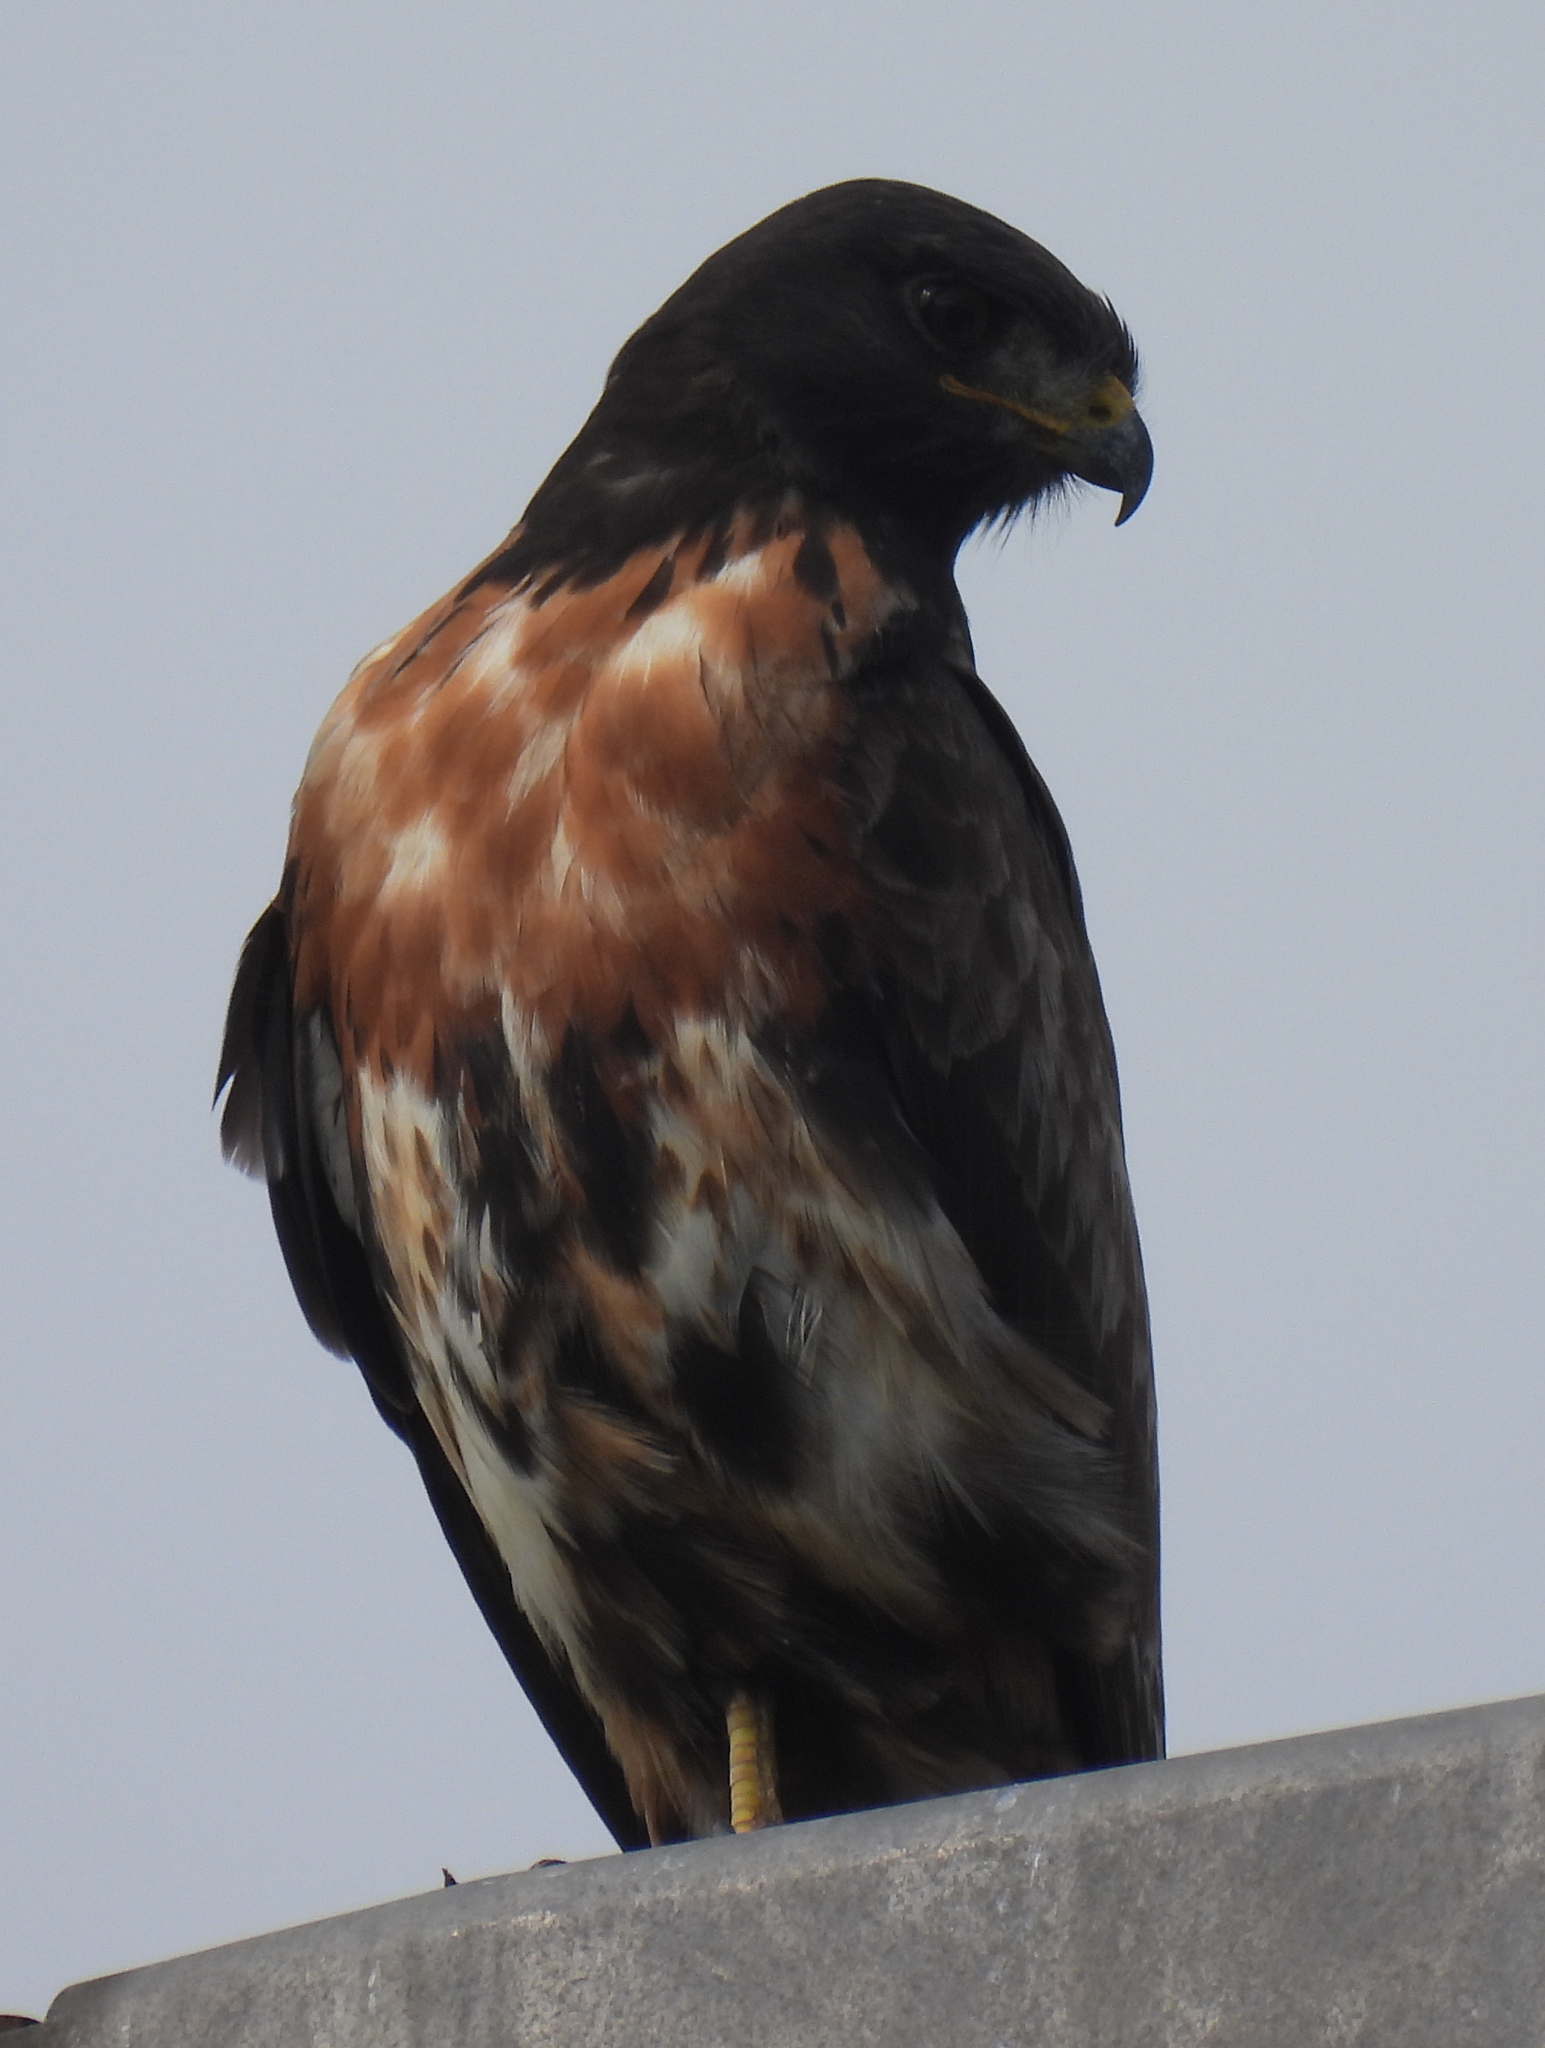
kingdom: Animalia
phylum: Chordata
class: Aves
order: Accipitriformes
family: Accipitridae
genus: Buteo
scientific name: Buteo rufofuscus
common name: Jackal buzzard
